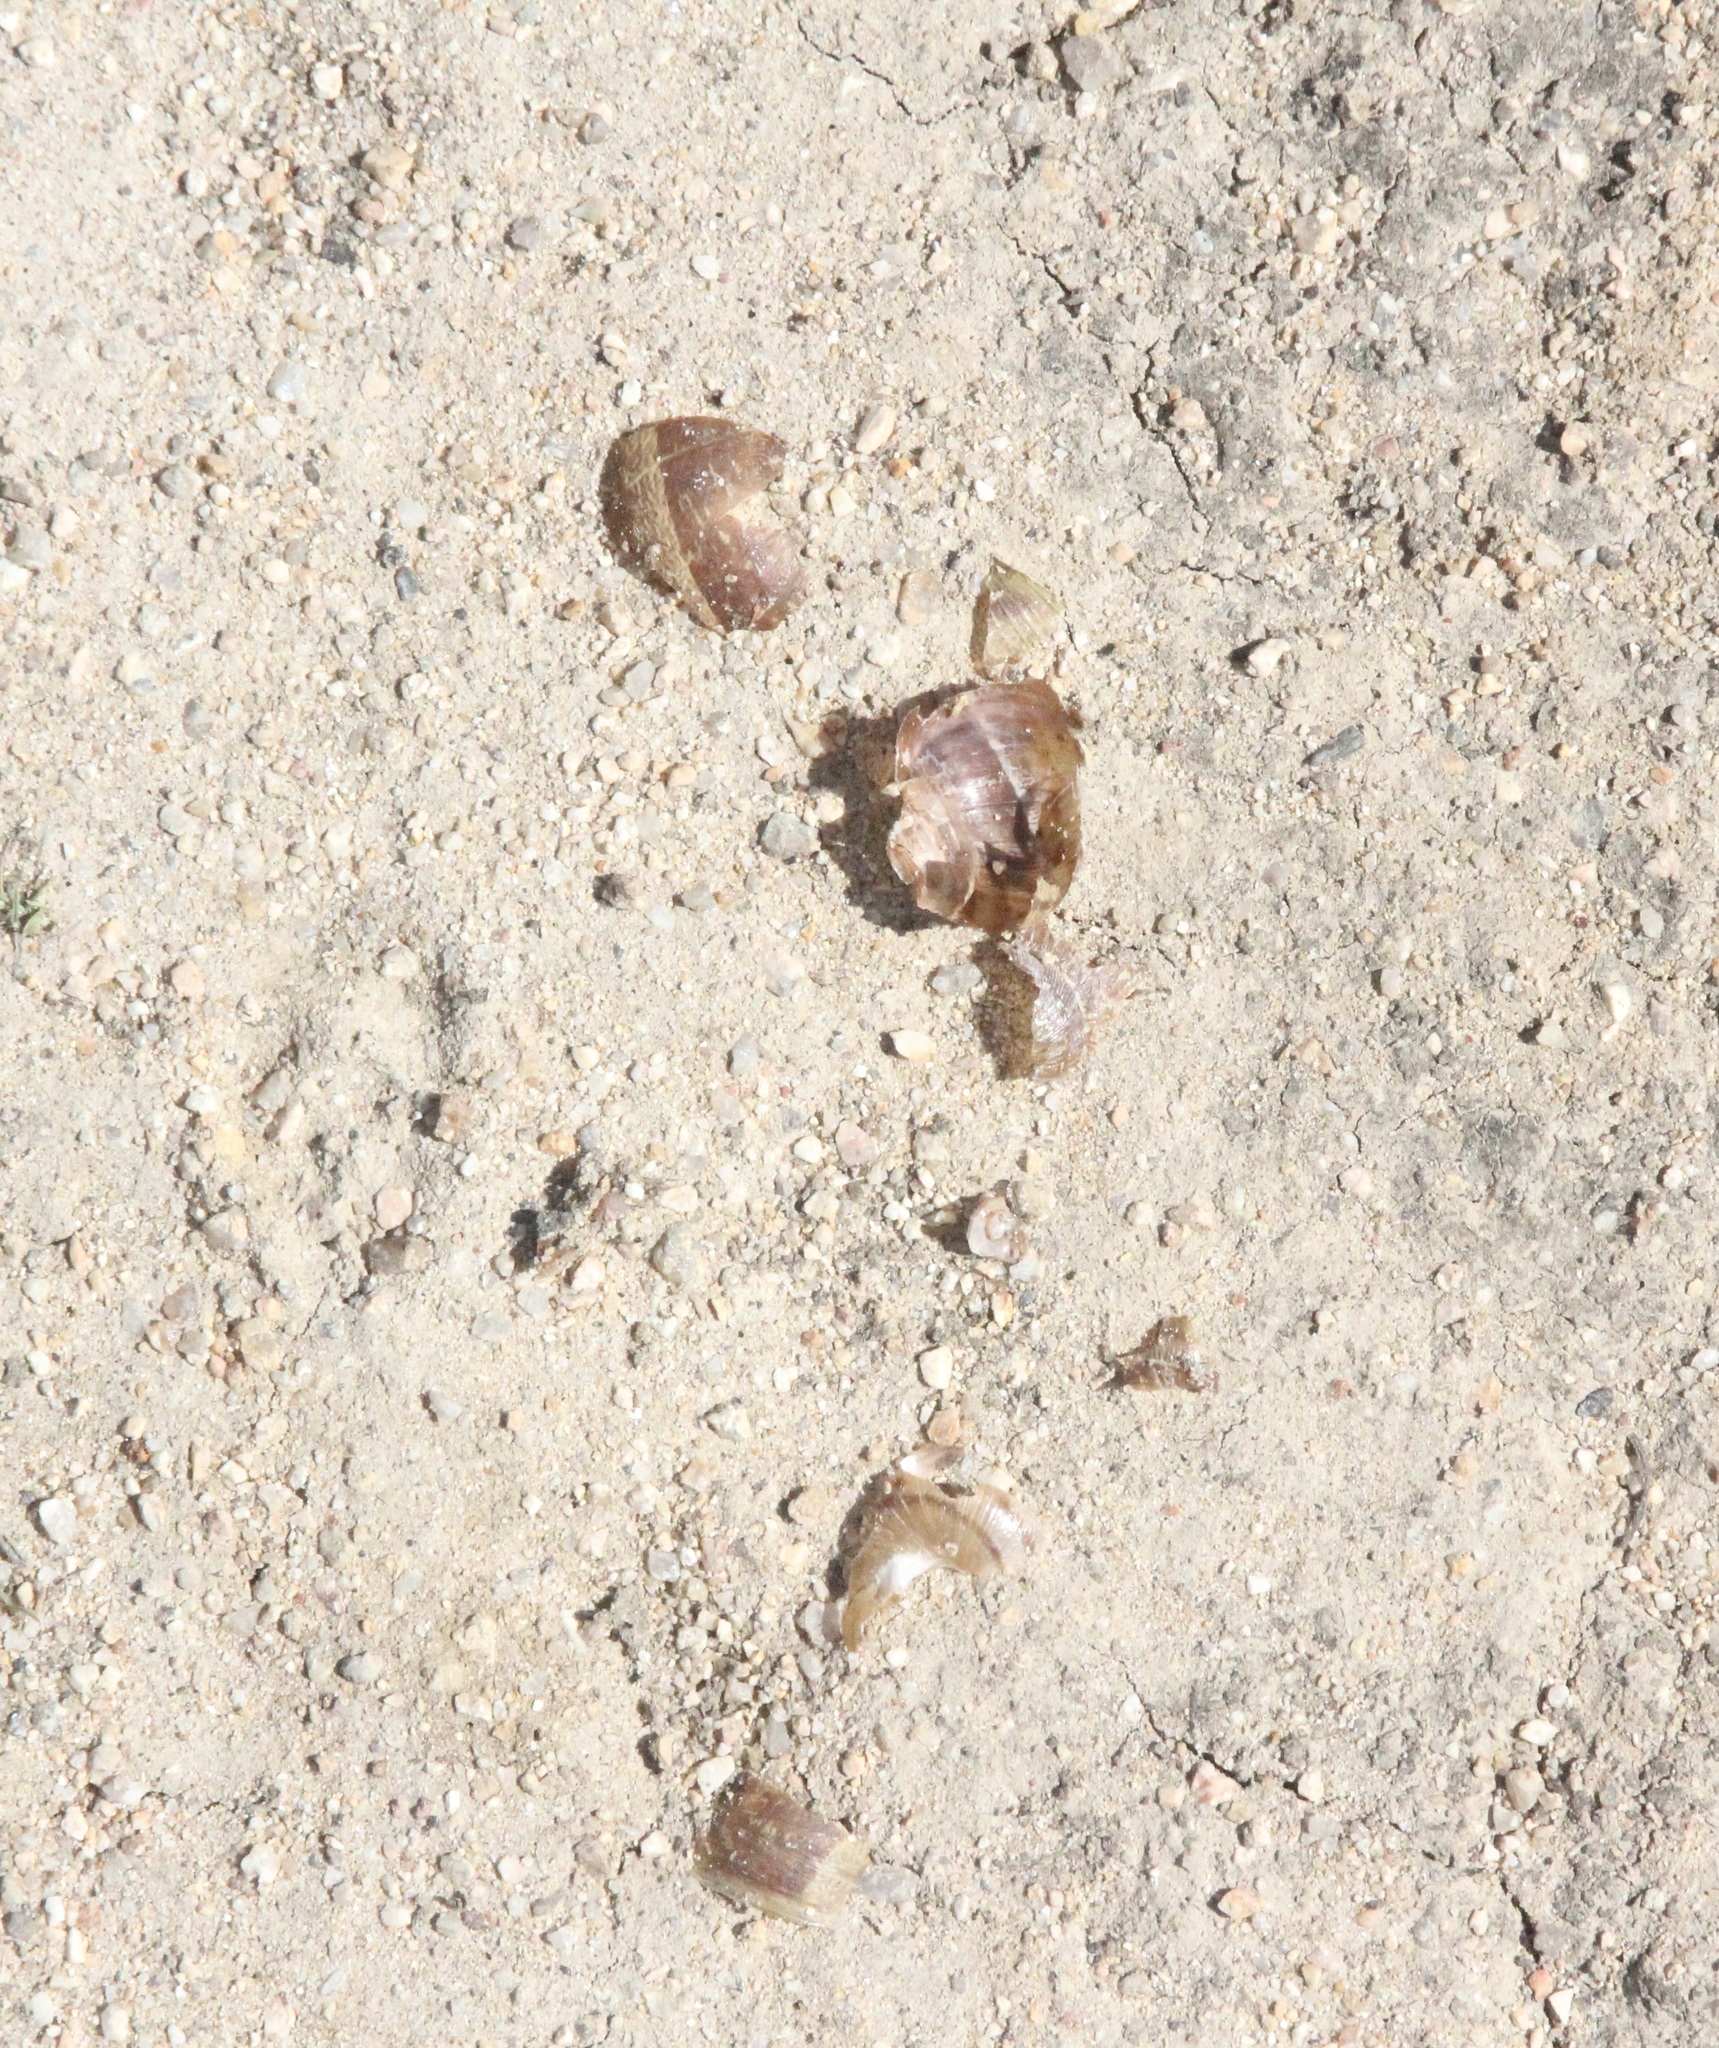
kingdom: Animalia
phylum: Mollusca
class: Gastropoda
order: Stylommatophora
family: Helicidae
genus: Cornu
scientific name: Cornu aspersum
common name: Brown garden snail
